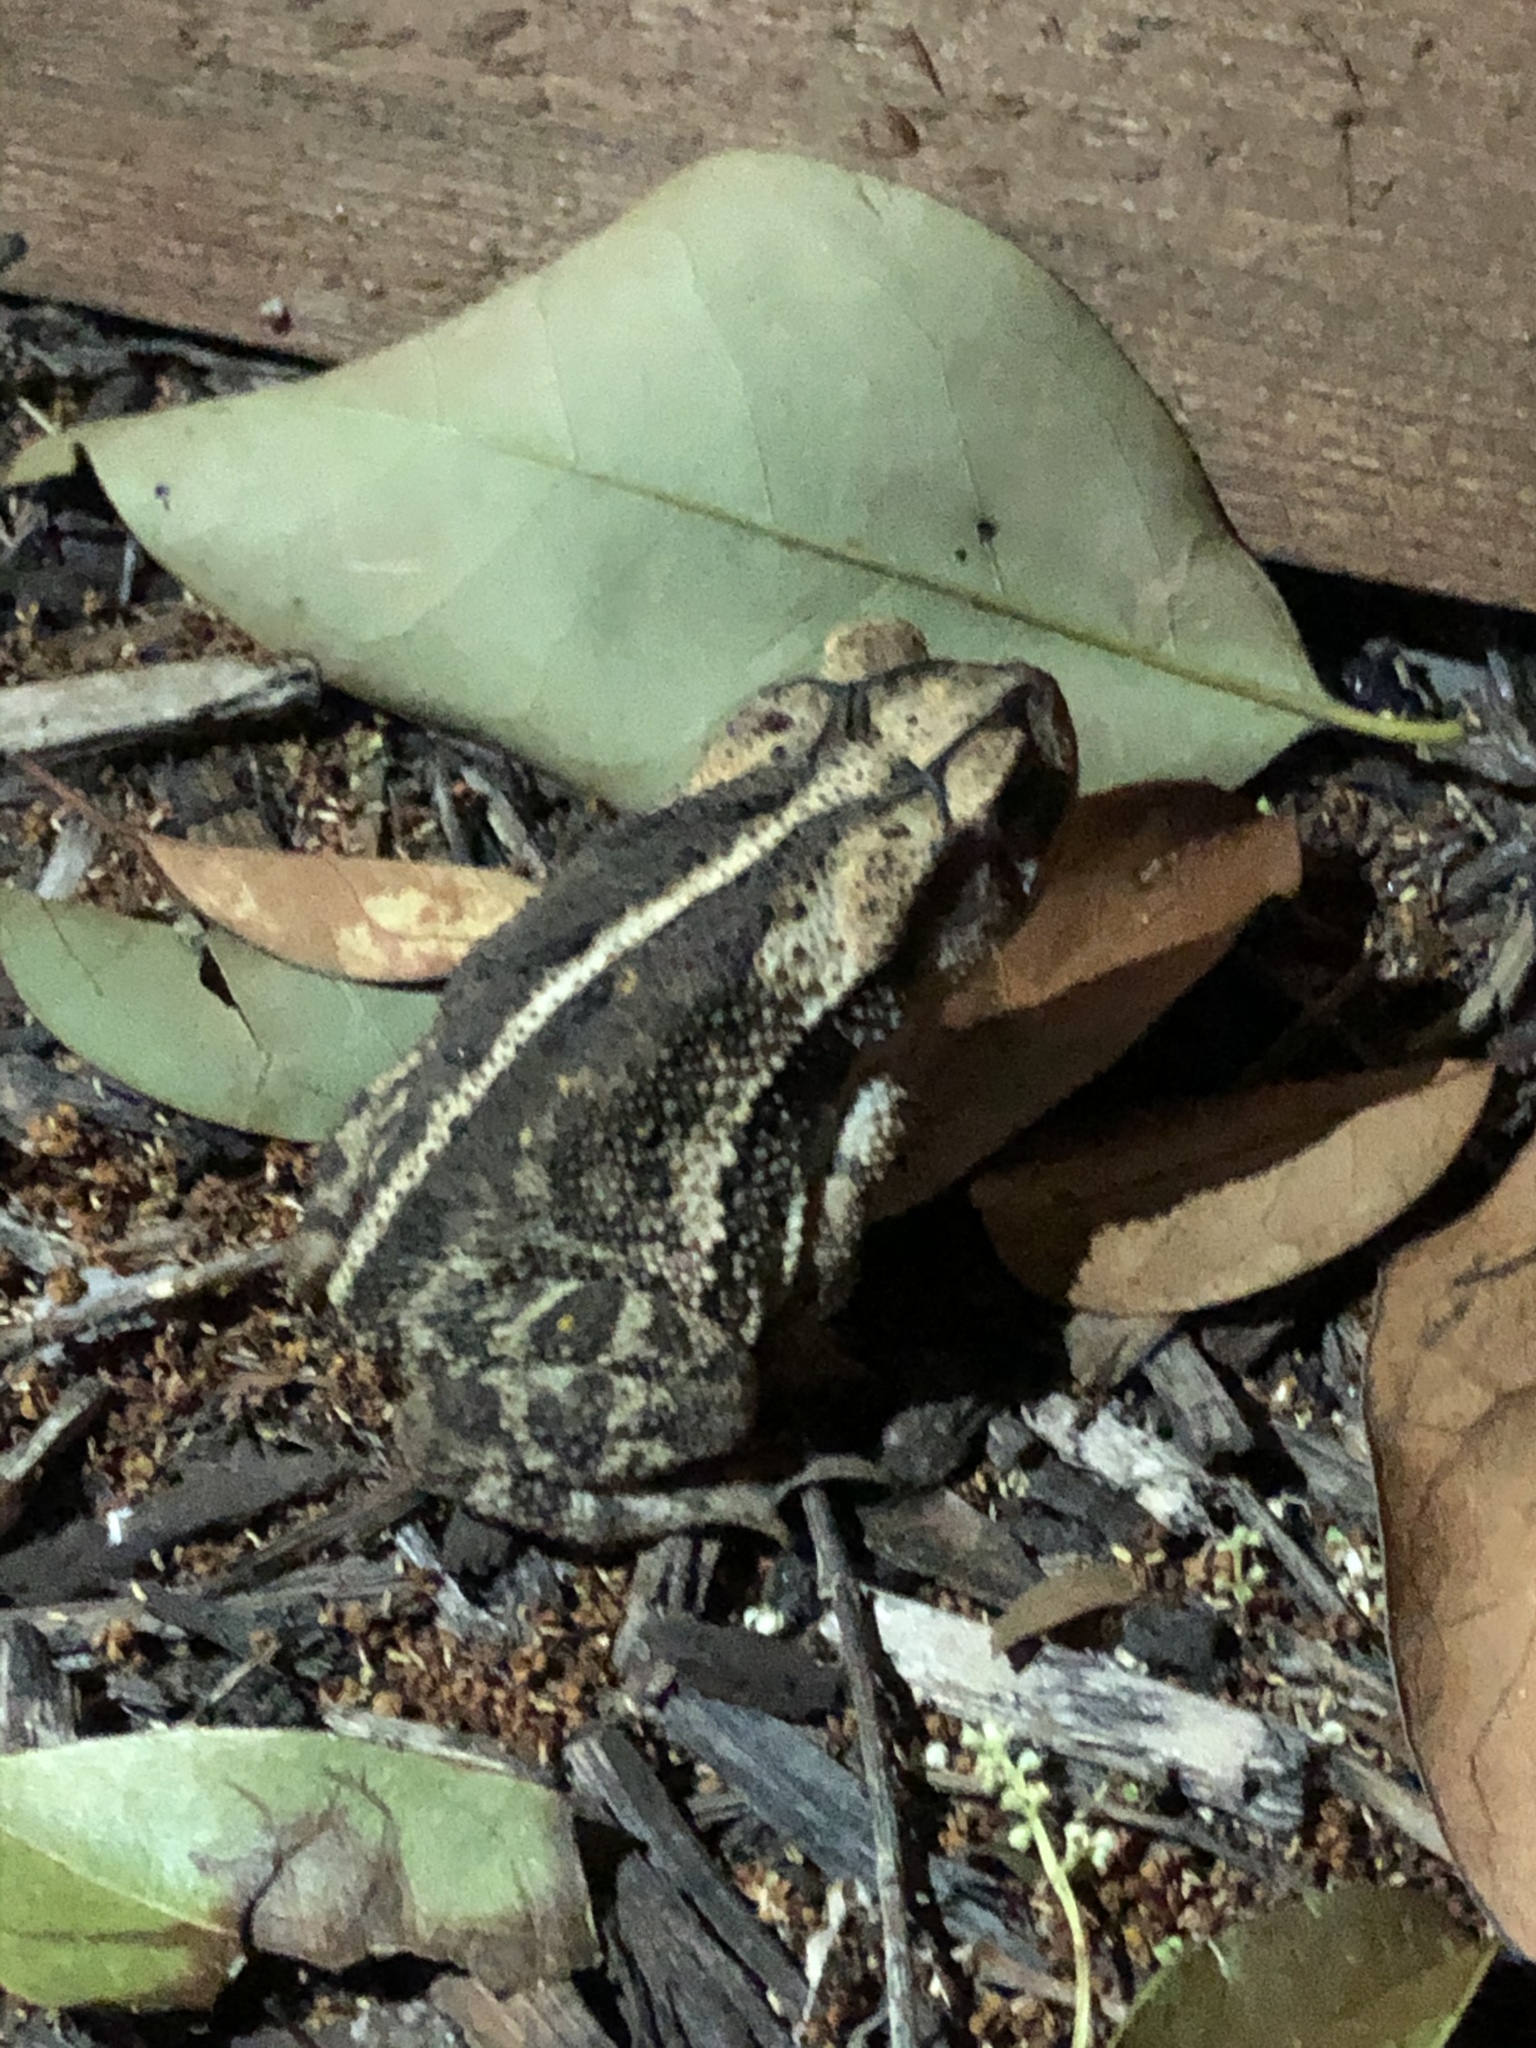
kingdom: Animalia
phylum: Chordata
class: Amphibia
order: Anura
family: Bufonidae
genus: Incilius
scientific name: Incilius nebulifer
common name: Gulf coast toad
